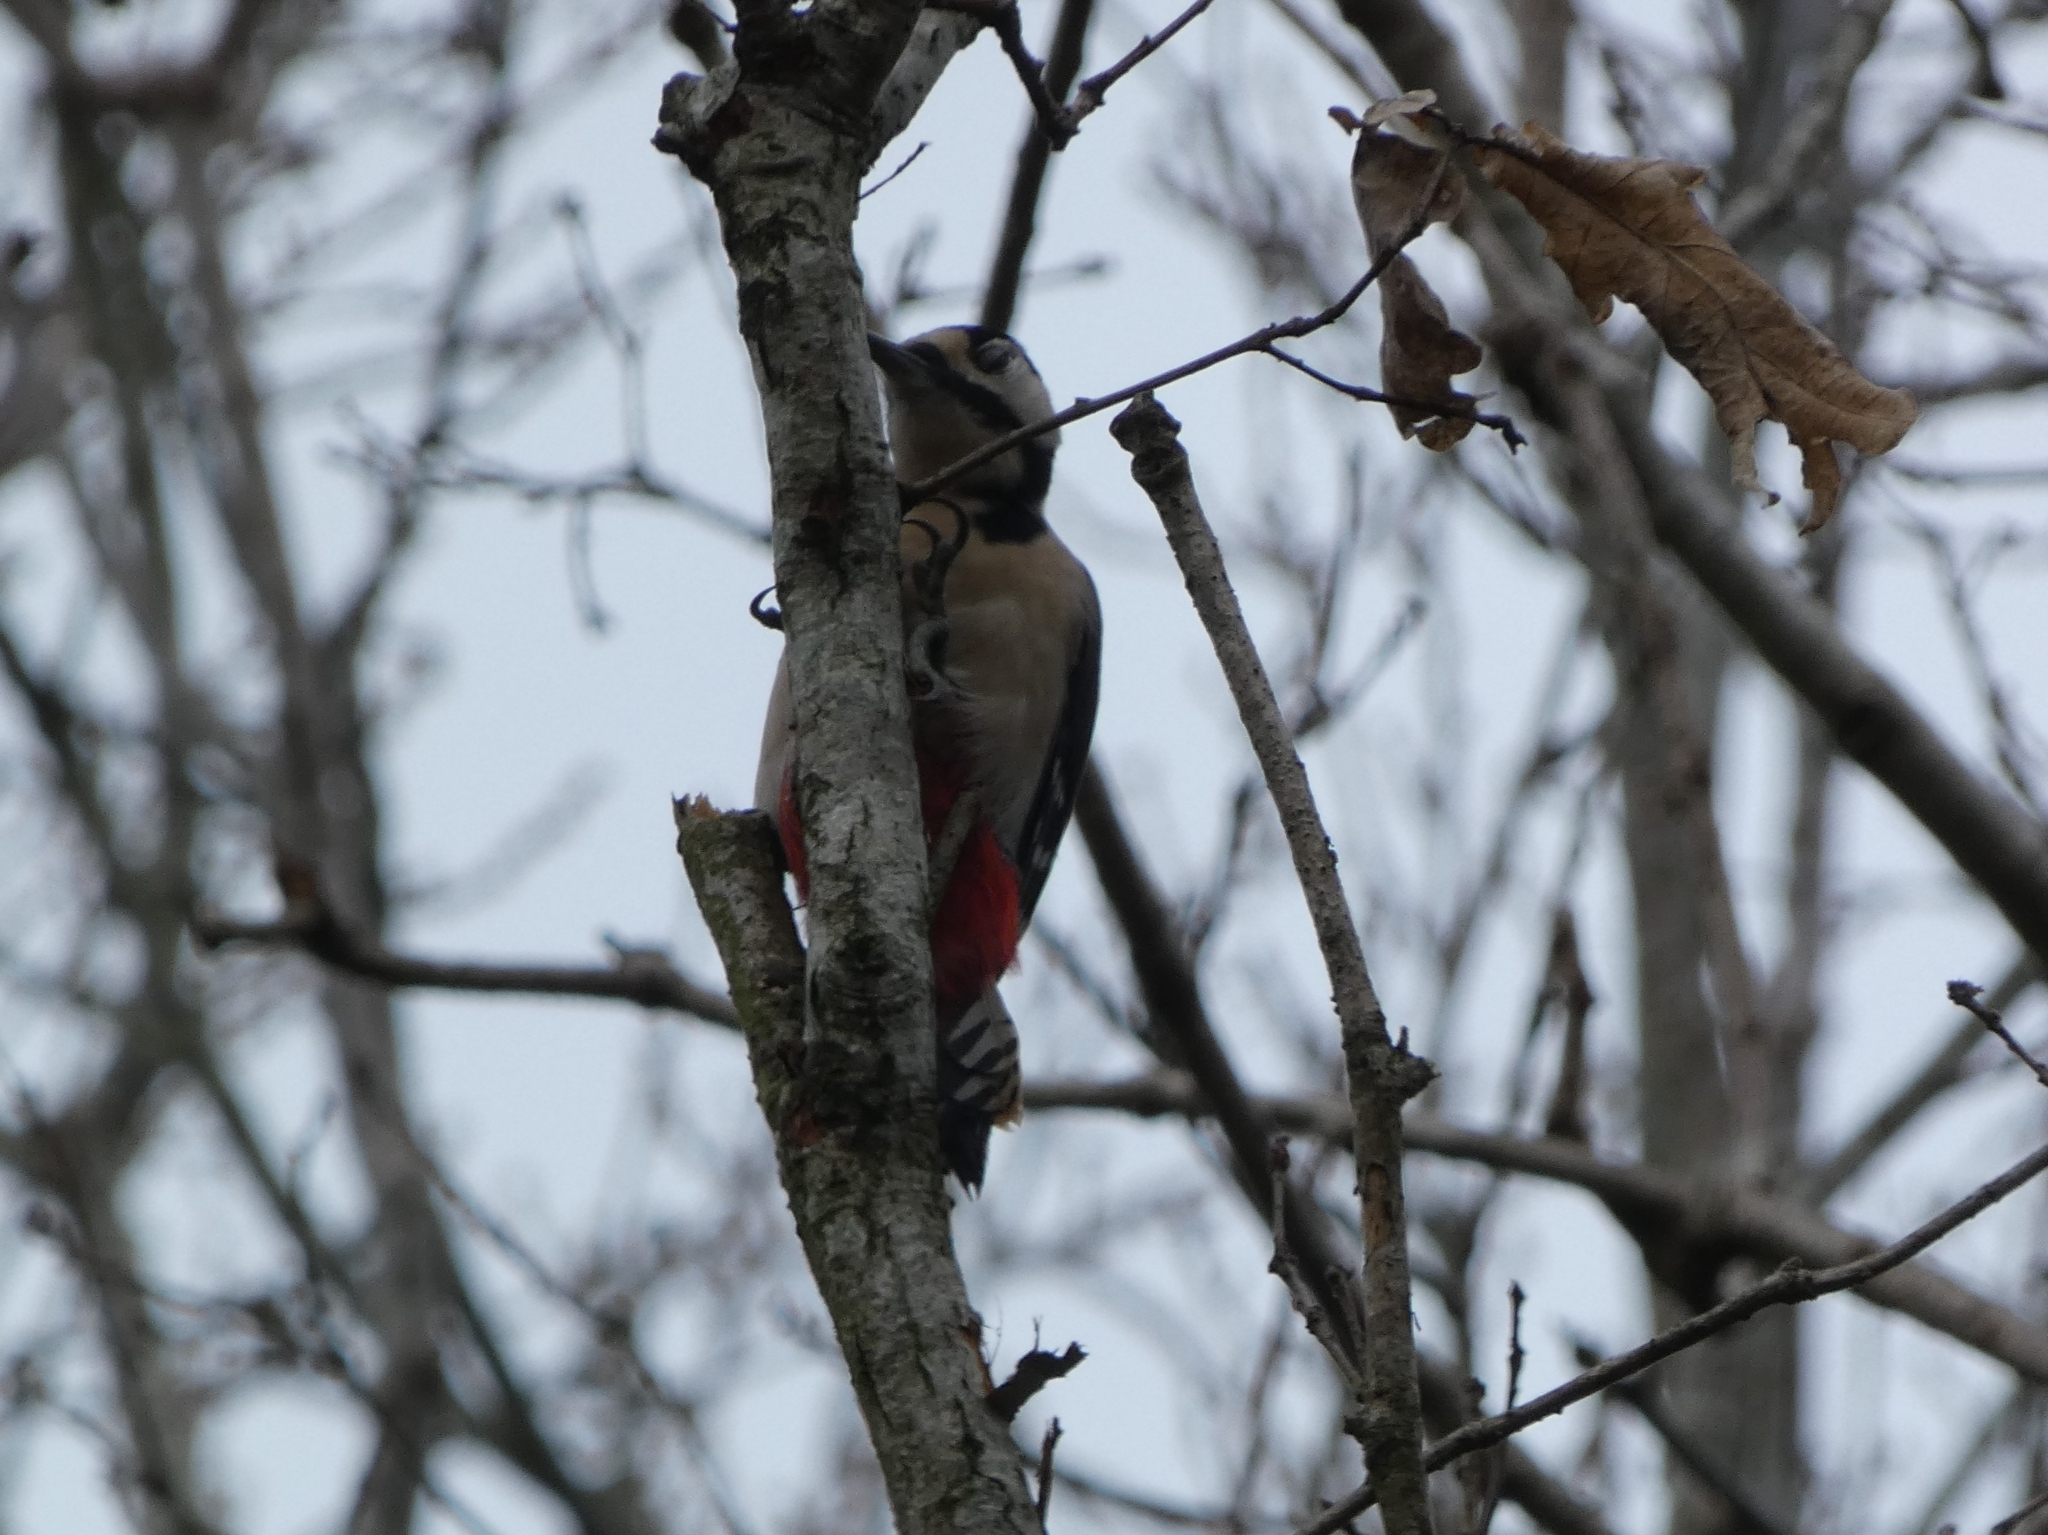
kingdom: Animalia
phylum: Chordata
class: Aves
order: Piciformes
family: Picidae
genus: Dendrocopos
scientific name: Dendrocopos major
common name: Great spotted woodpecker
